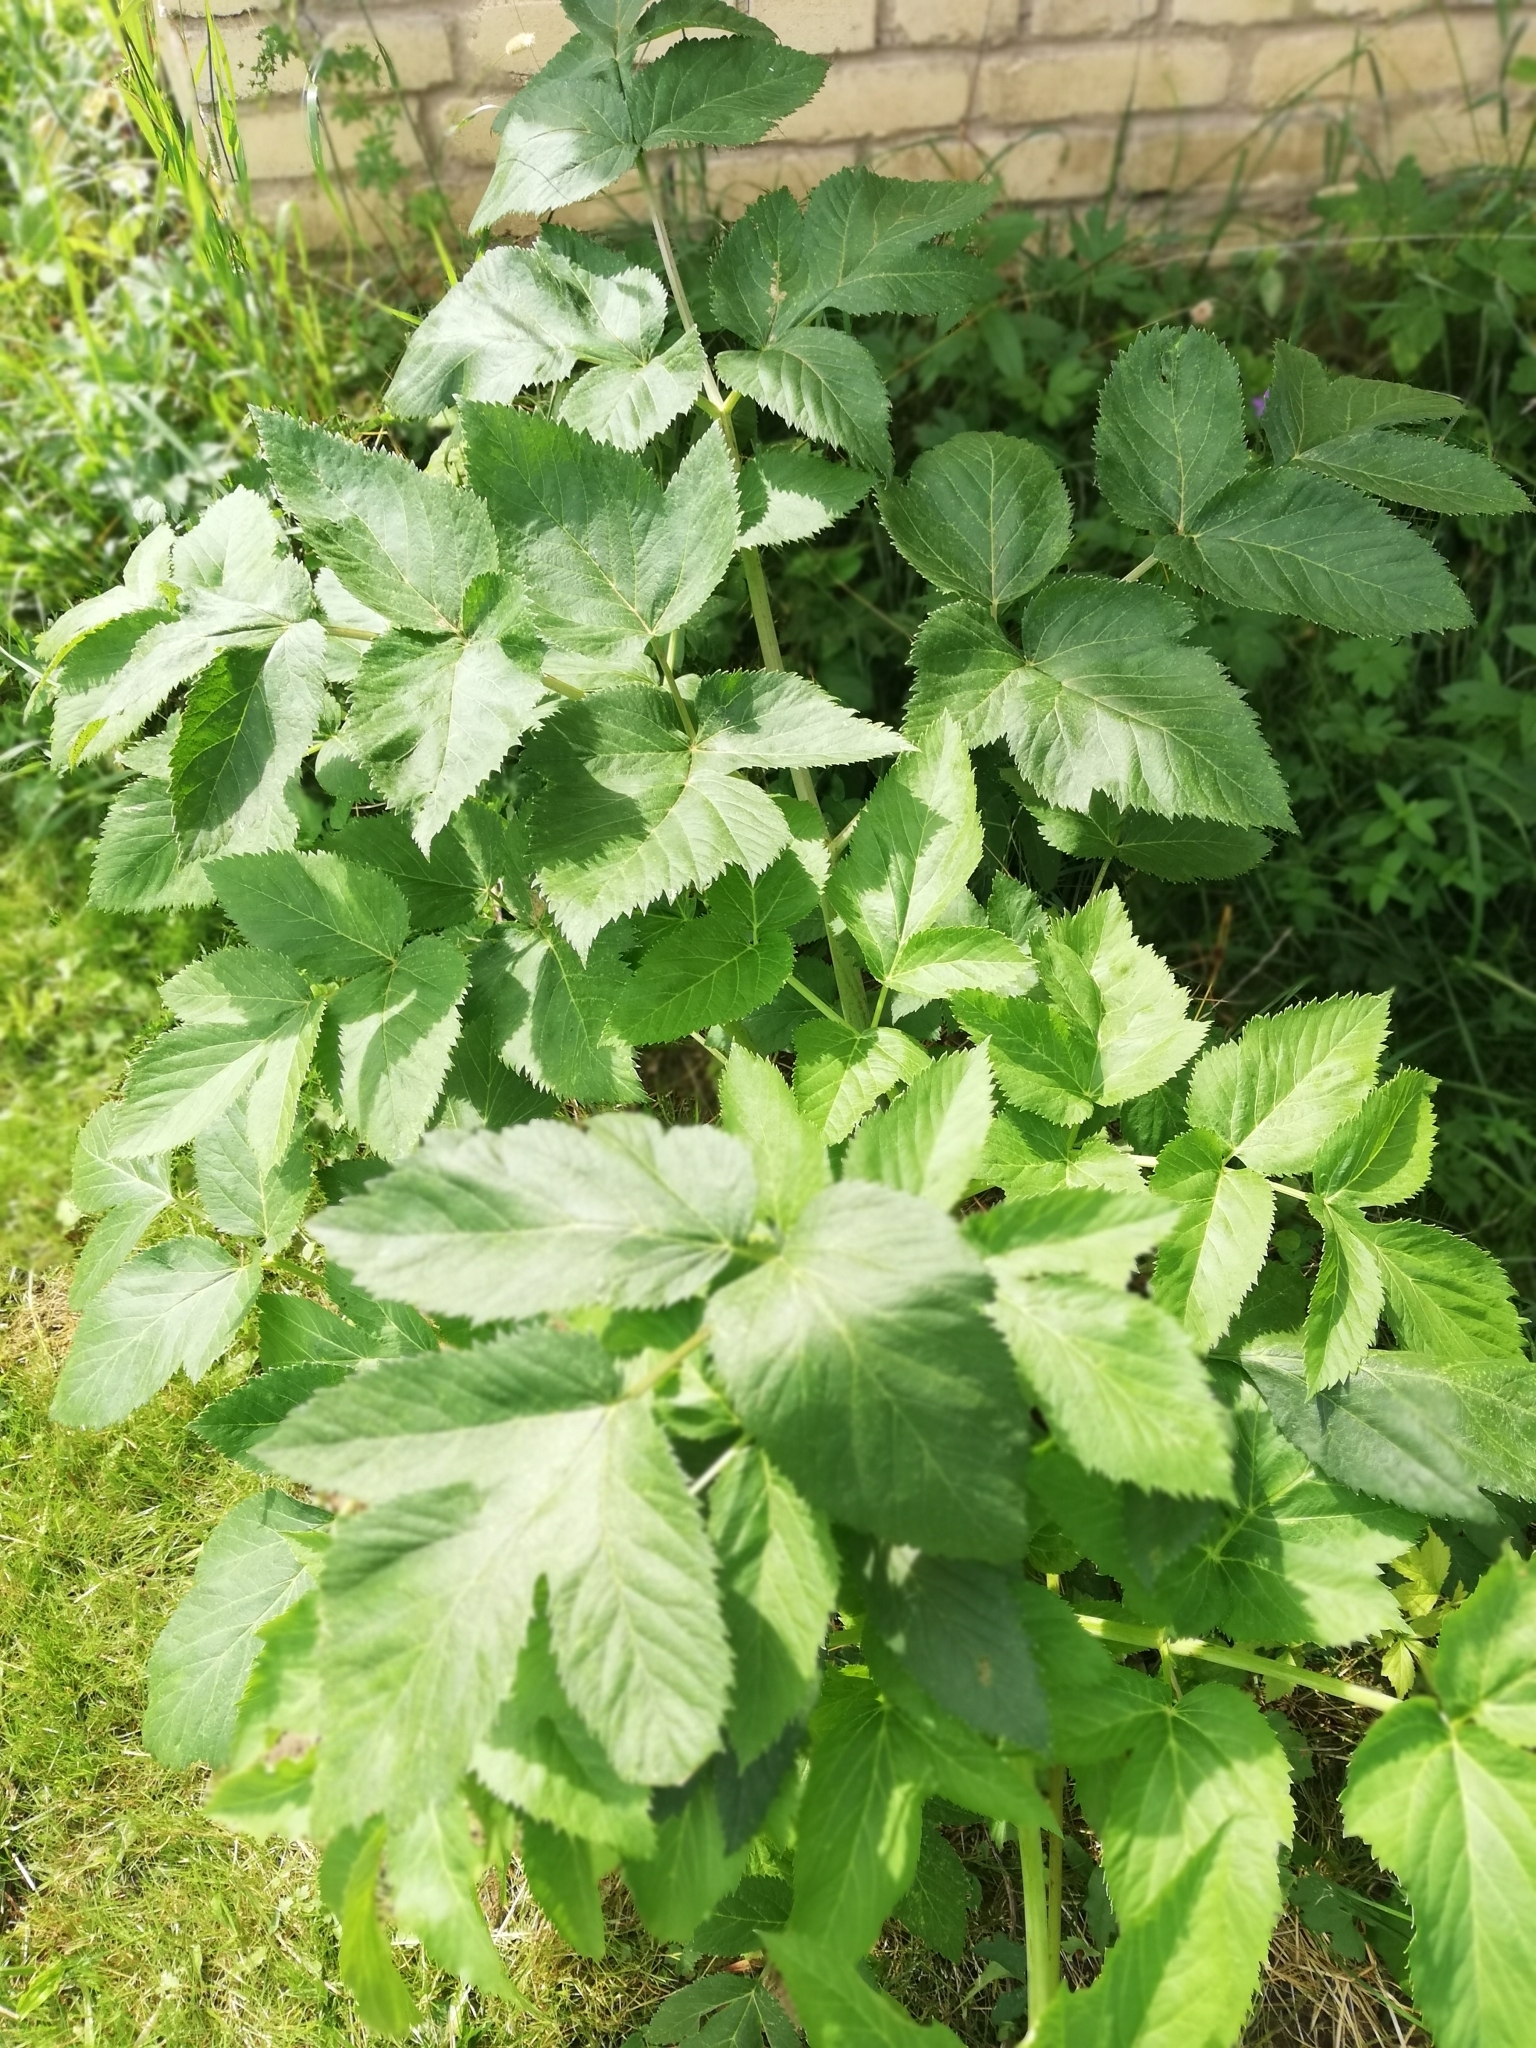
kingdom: Plantae
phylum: Tracheophyta
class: Magnoliopsida
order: Apiales
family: Apiaceae
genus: Angelica
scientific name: Angelica archangelica
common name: Garden angelica
